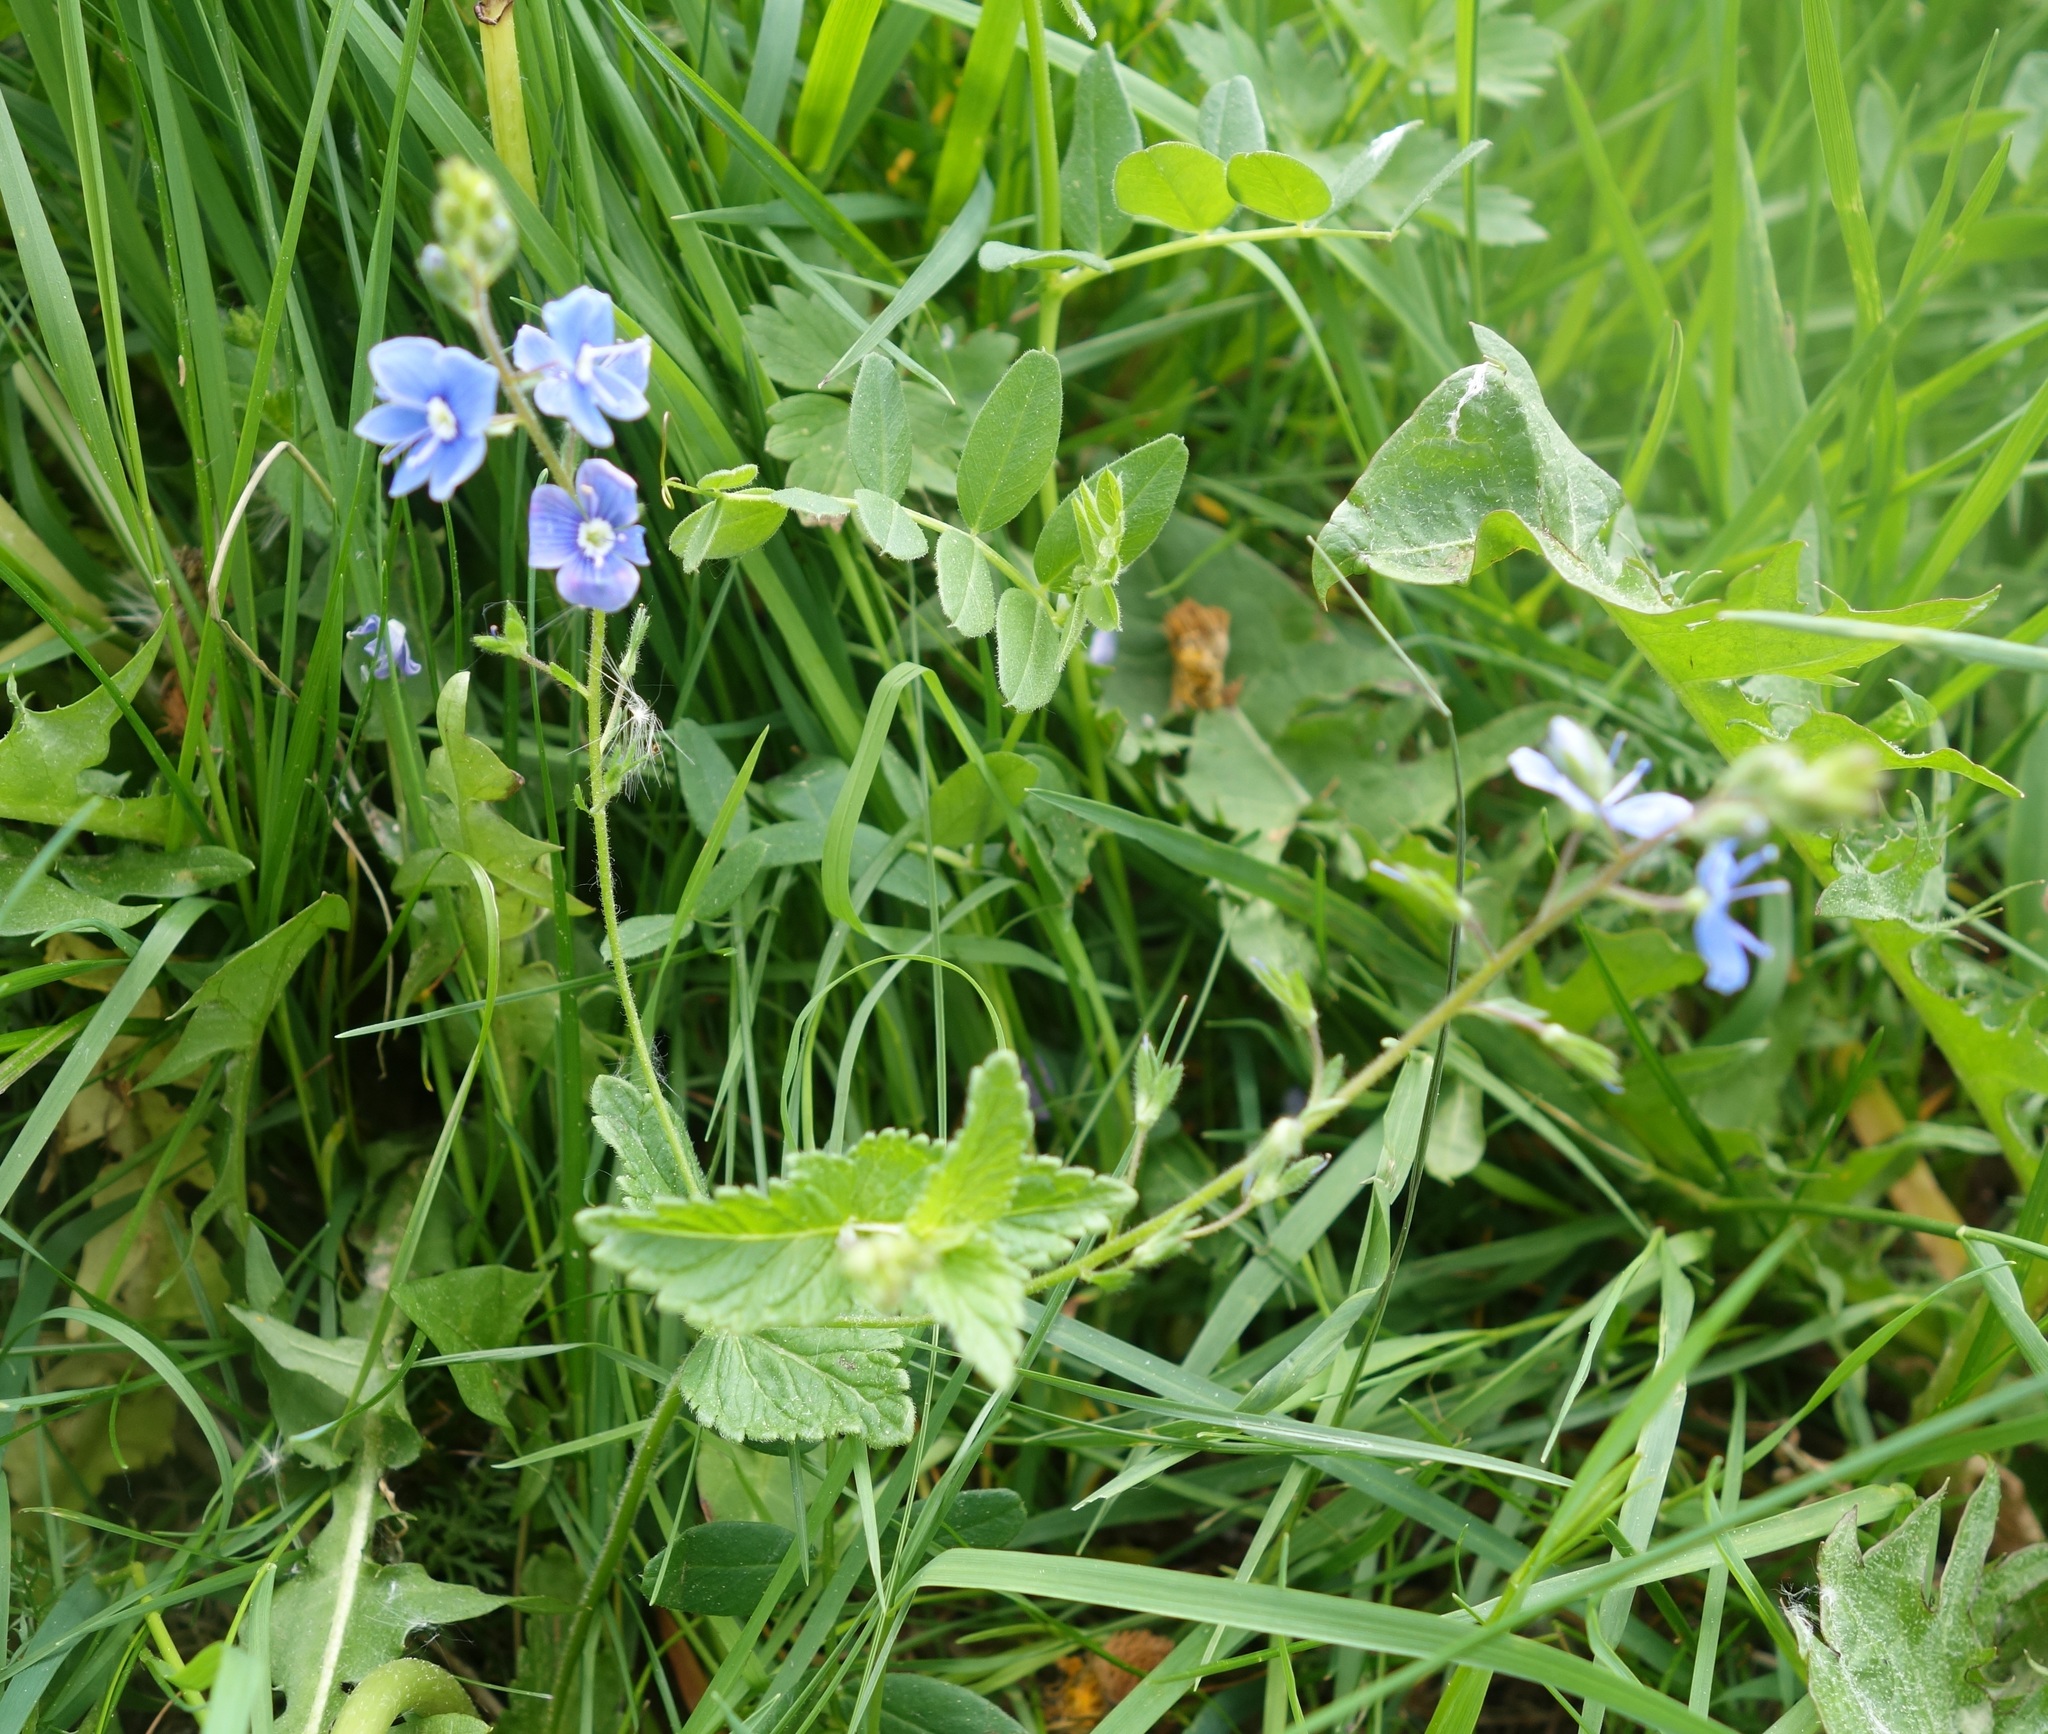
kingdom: Plantae
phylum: Tracheophyta
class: Magnoliopsida
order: Lamiales
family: Plantaginaceae
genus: Veronica
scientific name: Veronica chamaedrys
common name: Germander speedwell
